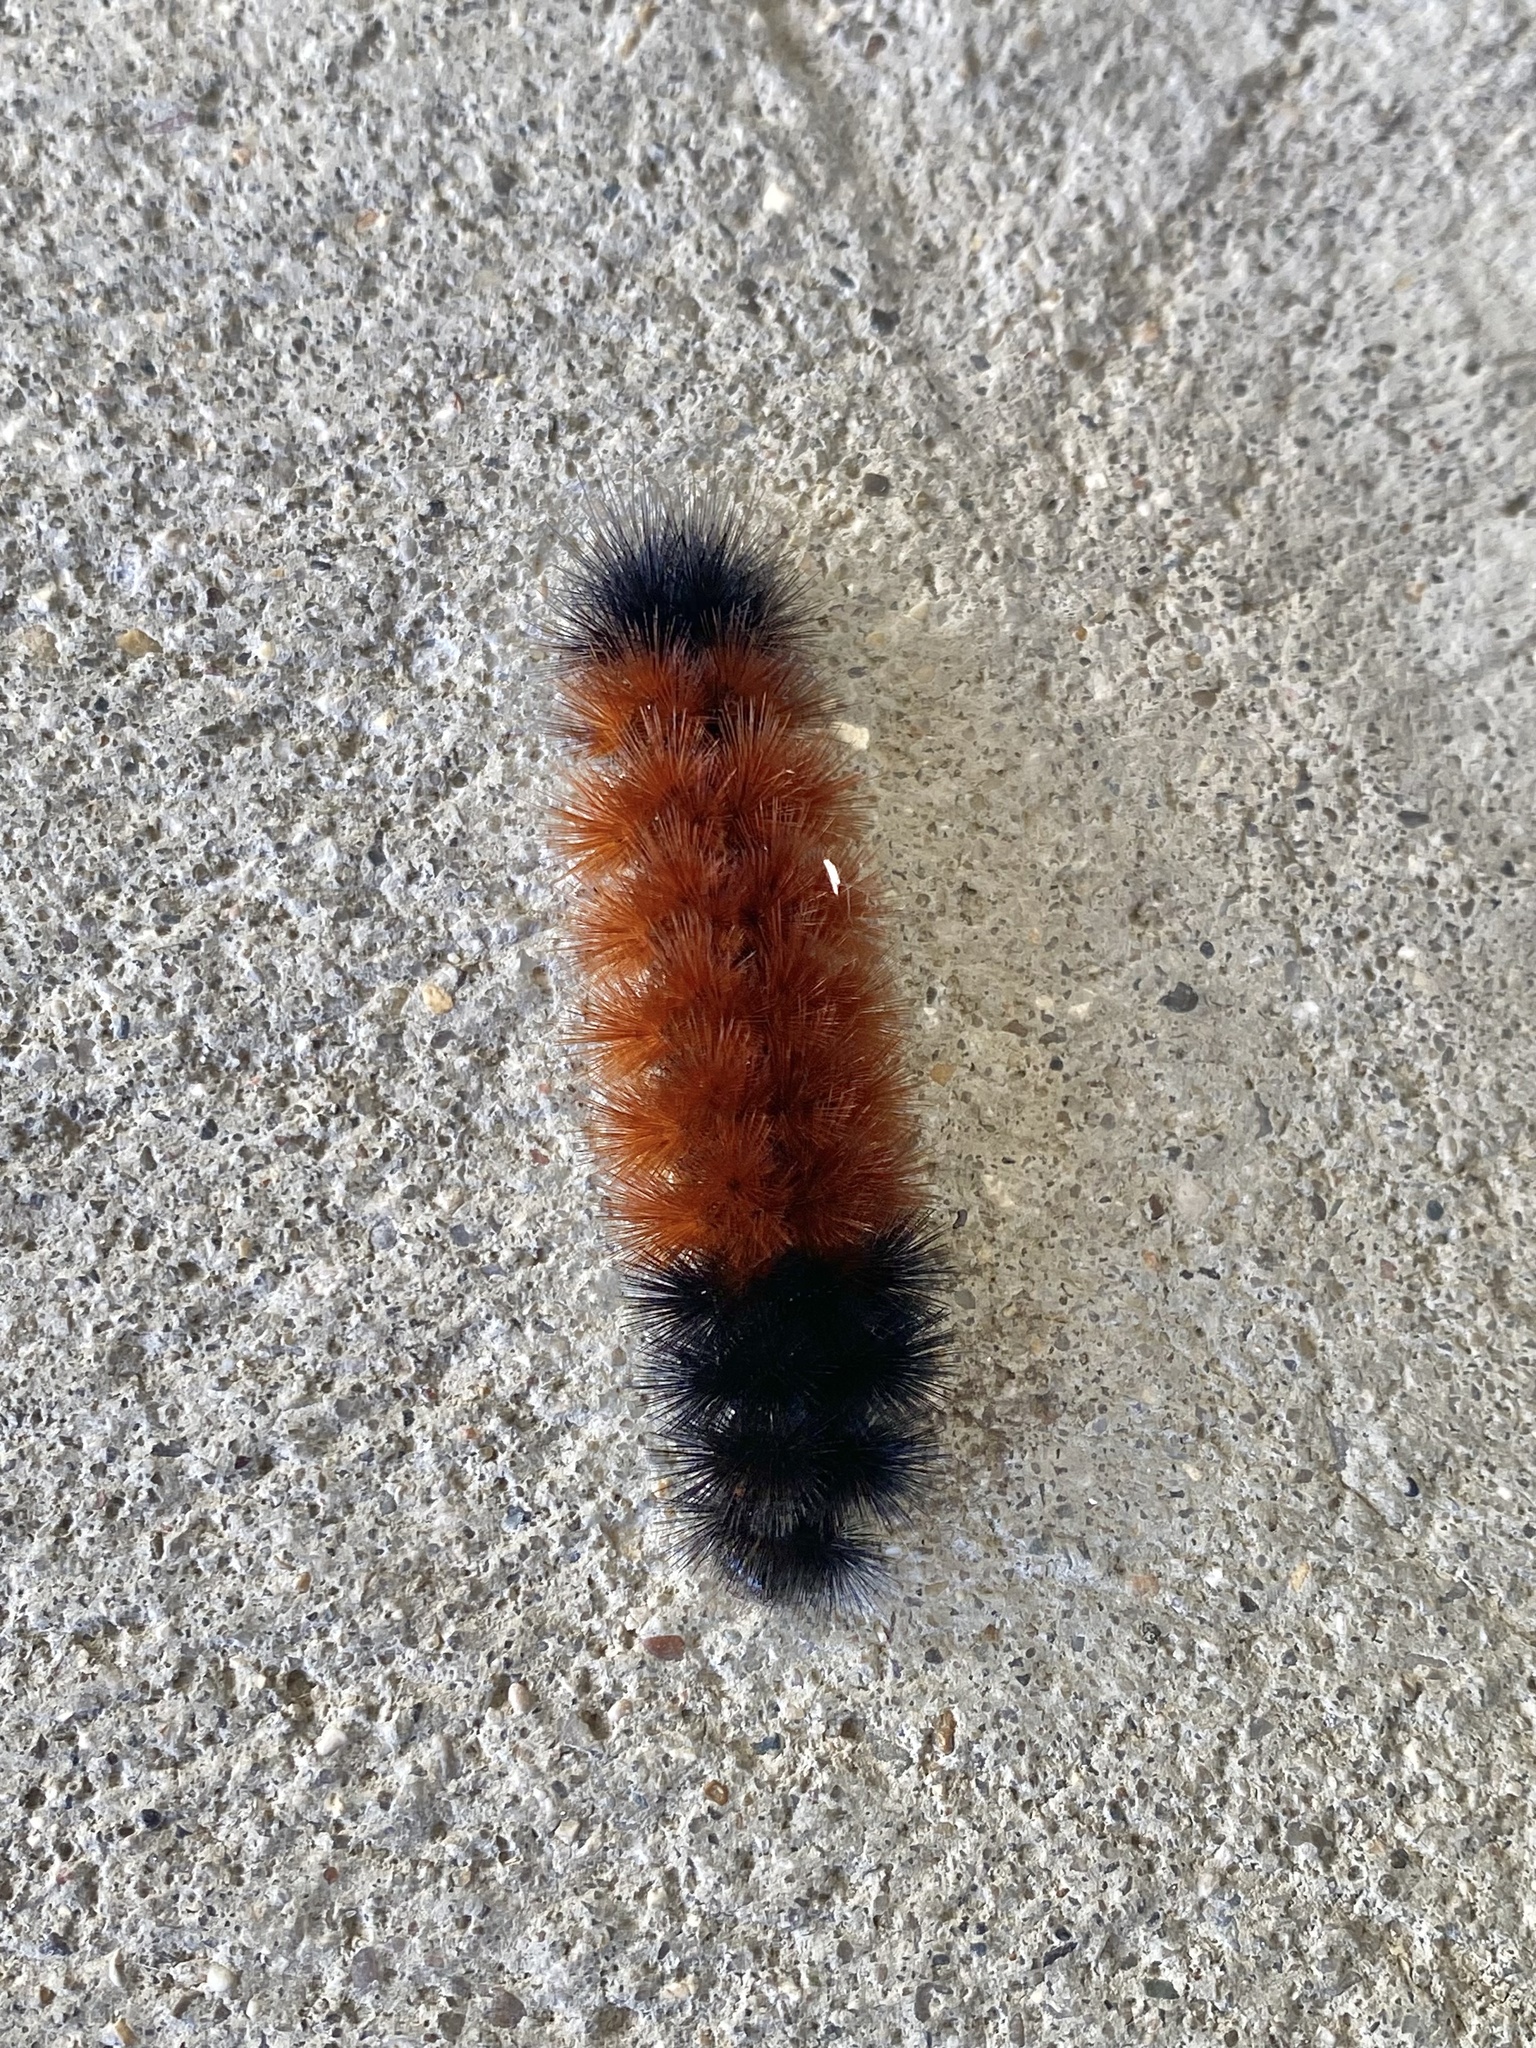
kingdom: Animalia
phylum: Arthropoda
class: Insecta
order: Lepidoptera
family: Erebidae
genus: Pyrrharctia
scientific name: Pyrrharctia isabella
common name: Isabella tiger moth
